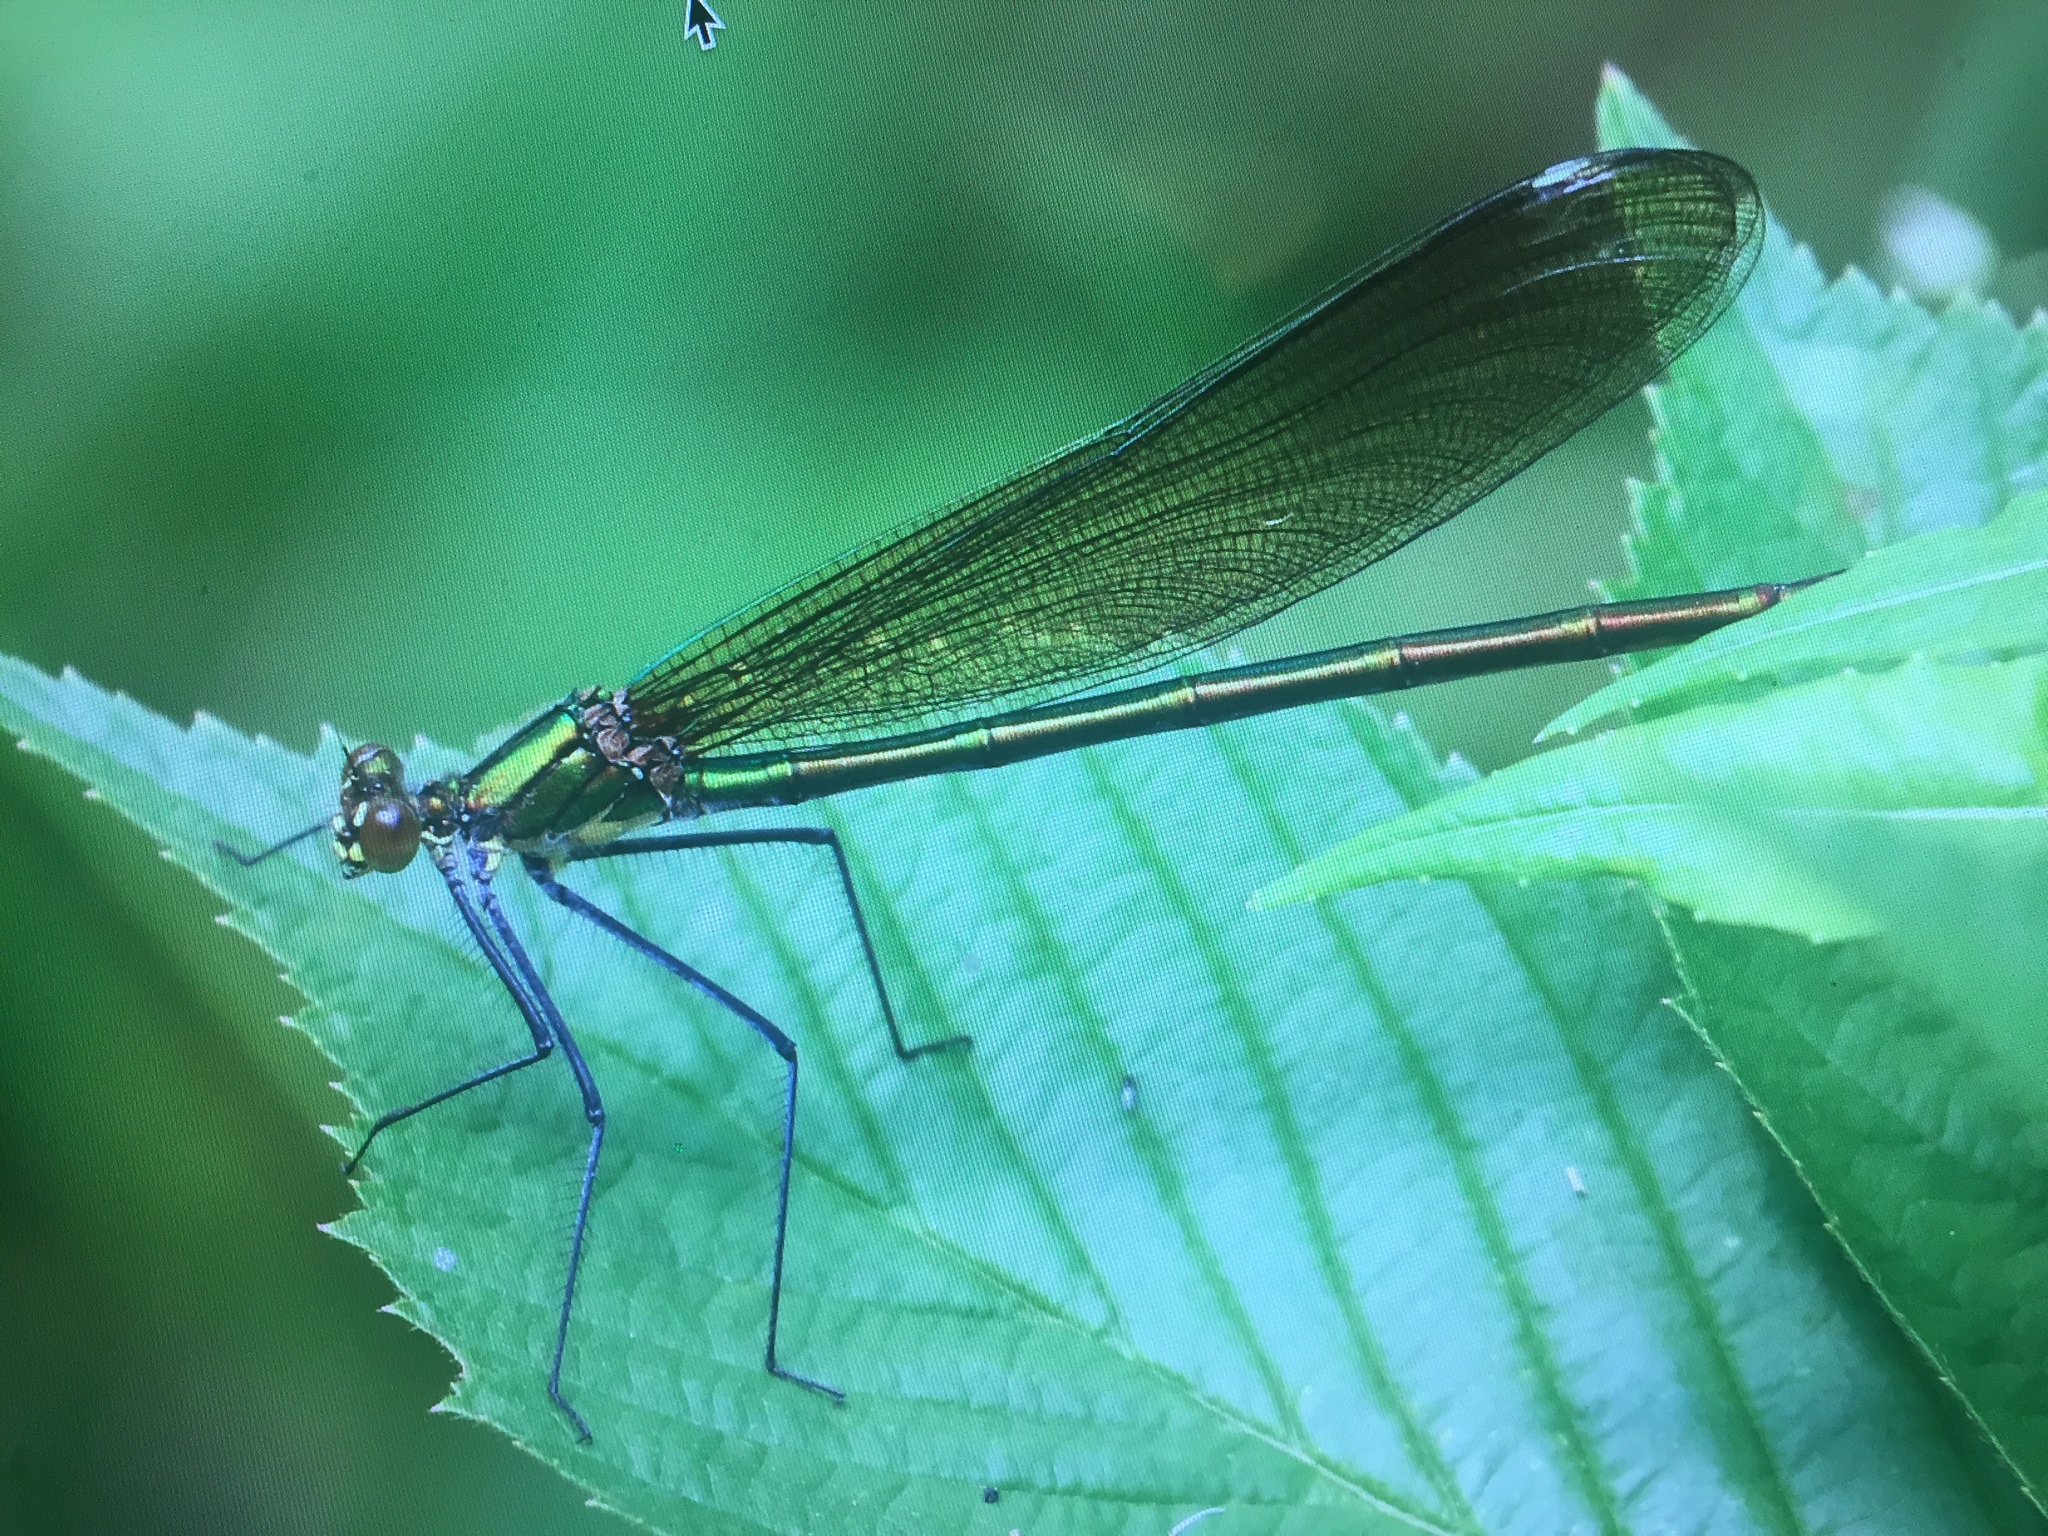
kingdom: Animalia
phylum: Arthropoda
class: Insecta
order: Odonata
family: Calopterygidae
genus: Calopteryx
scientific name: Calopteryx amata
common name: Superb jewelwing
